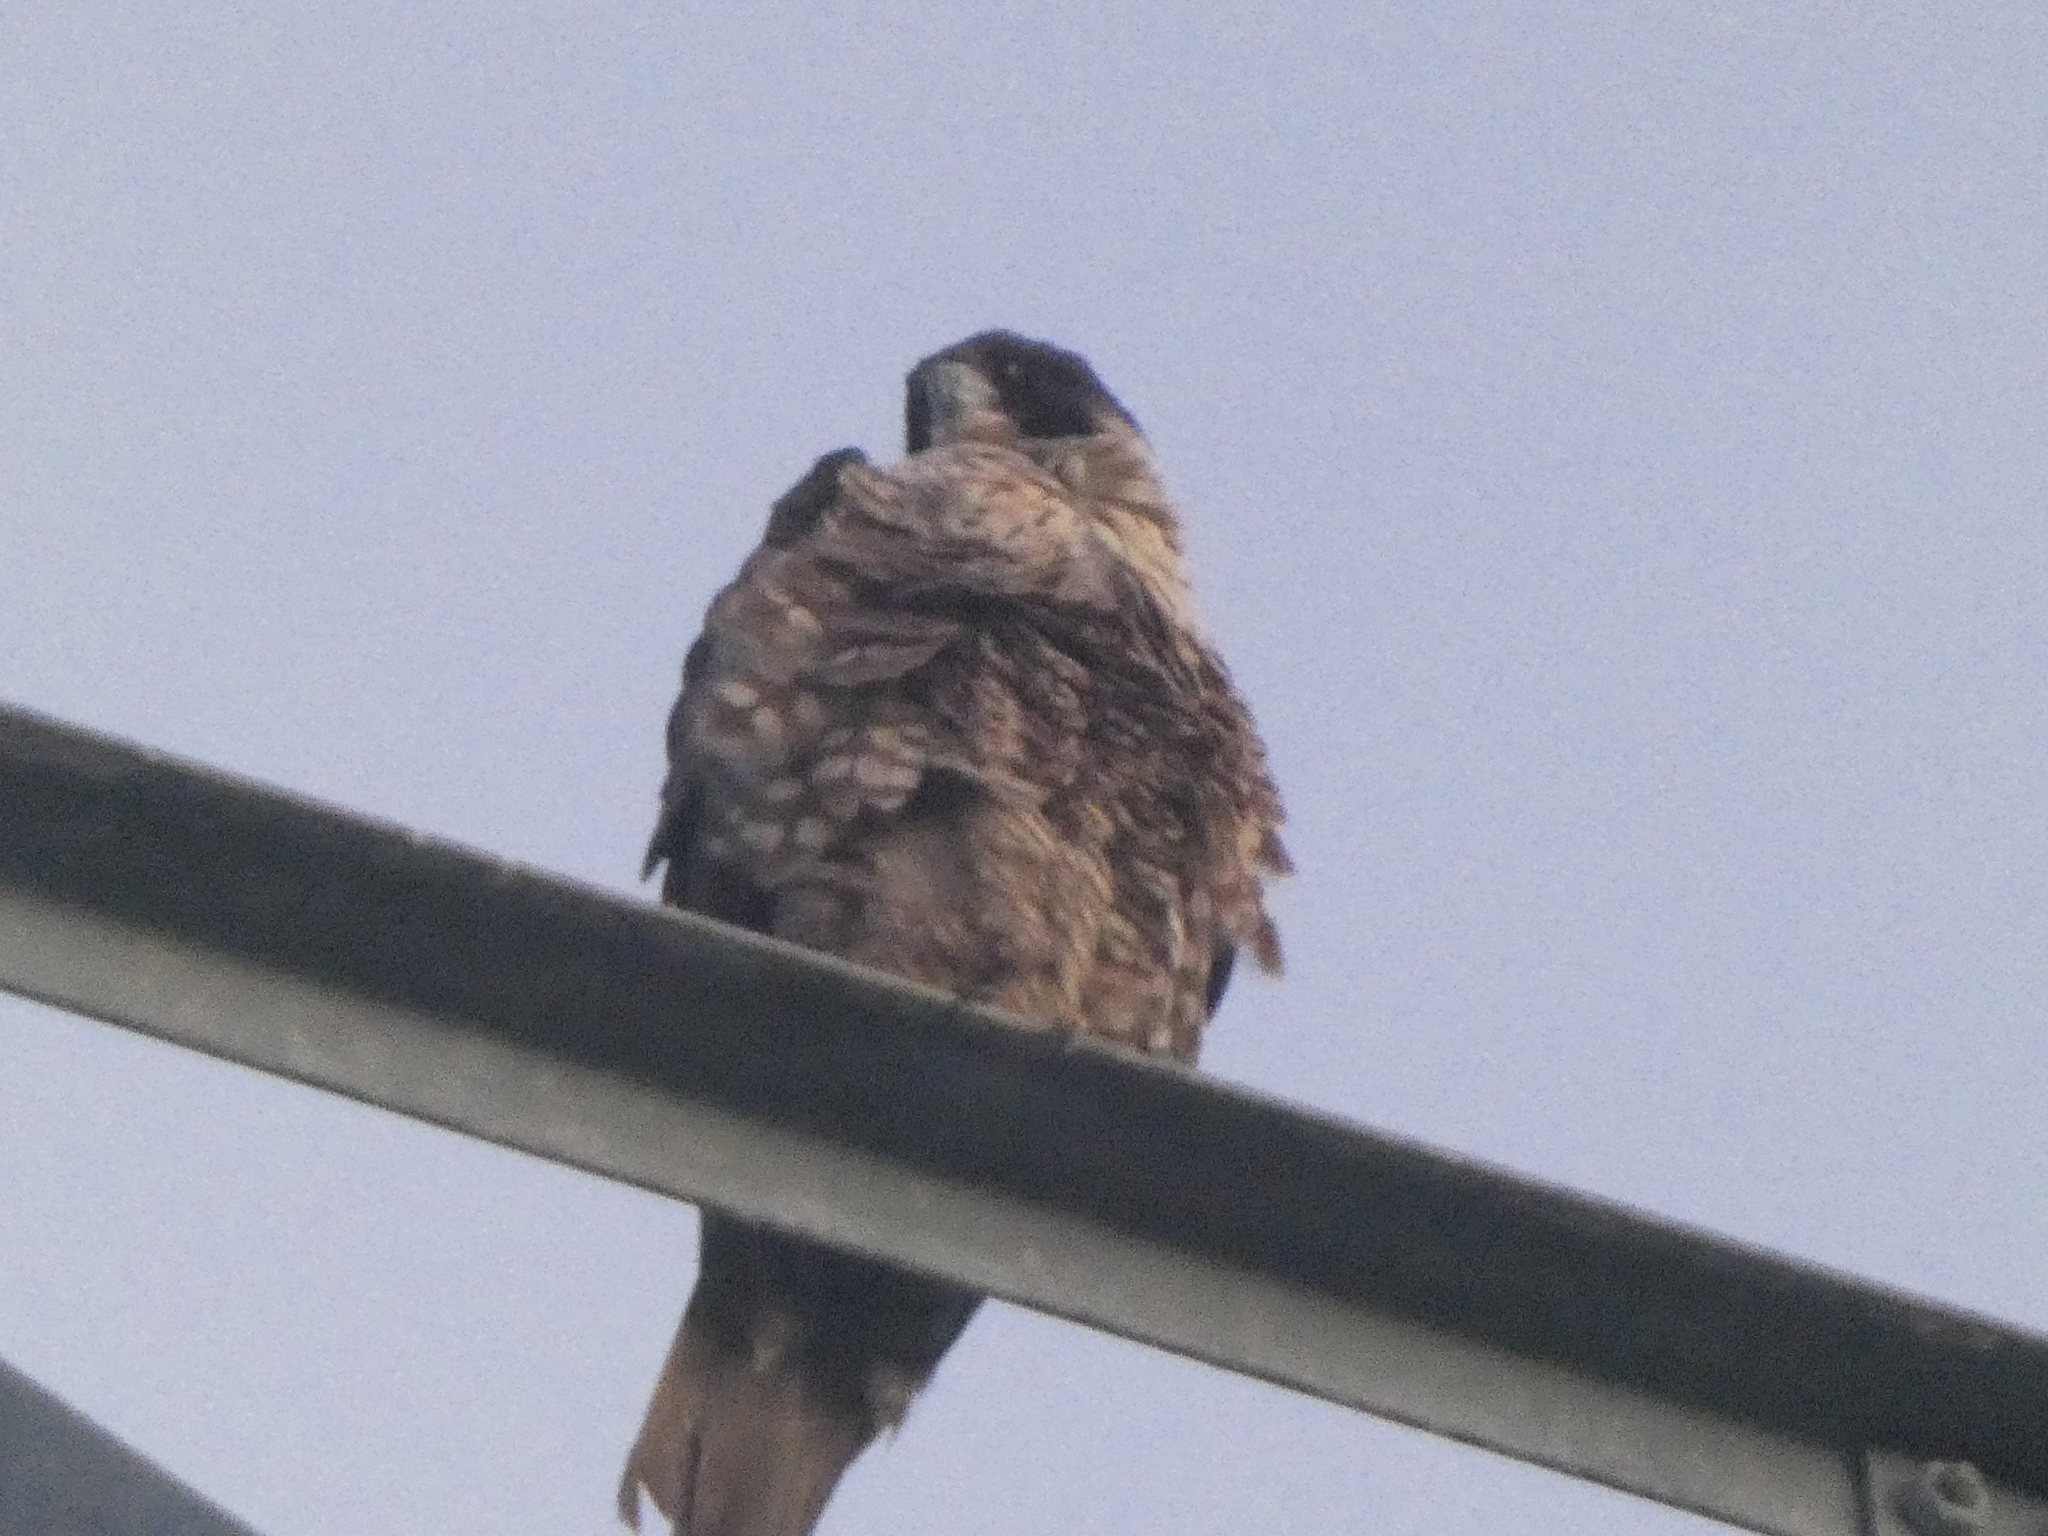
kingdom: Animalia
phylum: Chordata
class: Aves
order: Falconiformes
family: Falconidae
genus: Falco
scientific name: Falco peregrinus
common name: Peregrine falcon
